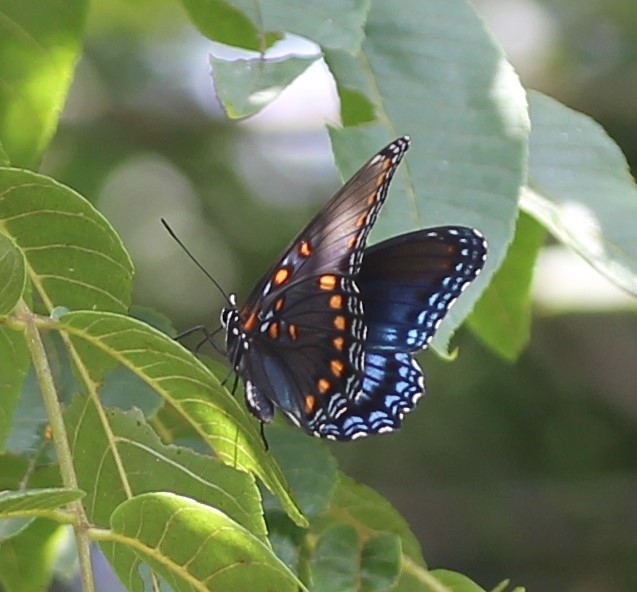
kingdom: Animalia
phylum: Arthropoda
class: Insecta
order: Lepidoptera
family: Nymphalidae
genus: Limenitis
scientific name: Limenitis astyanax
